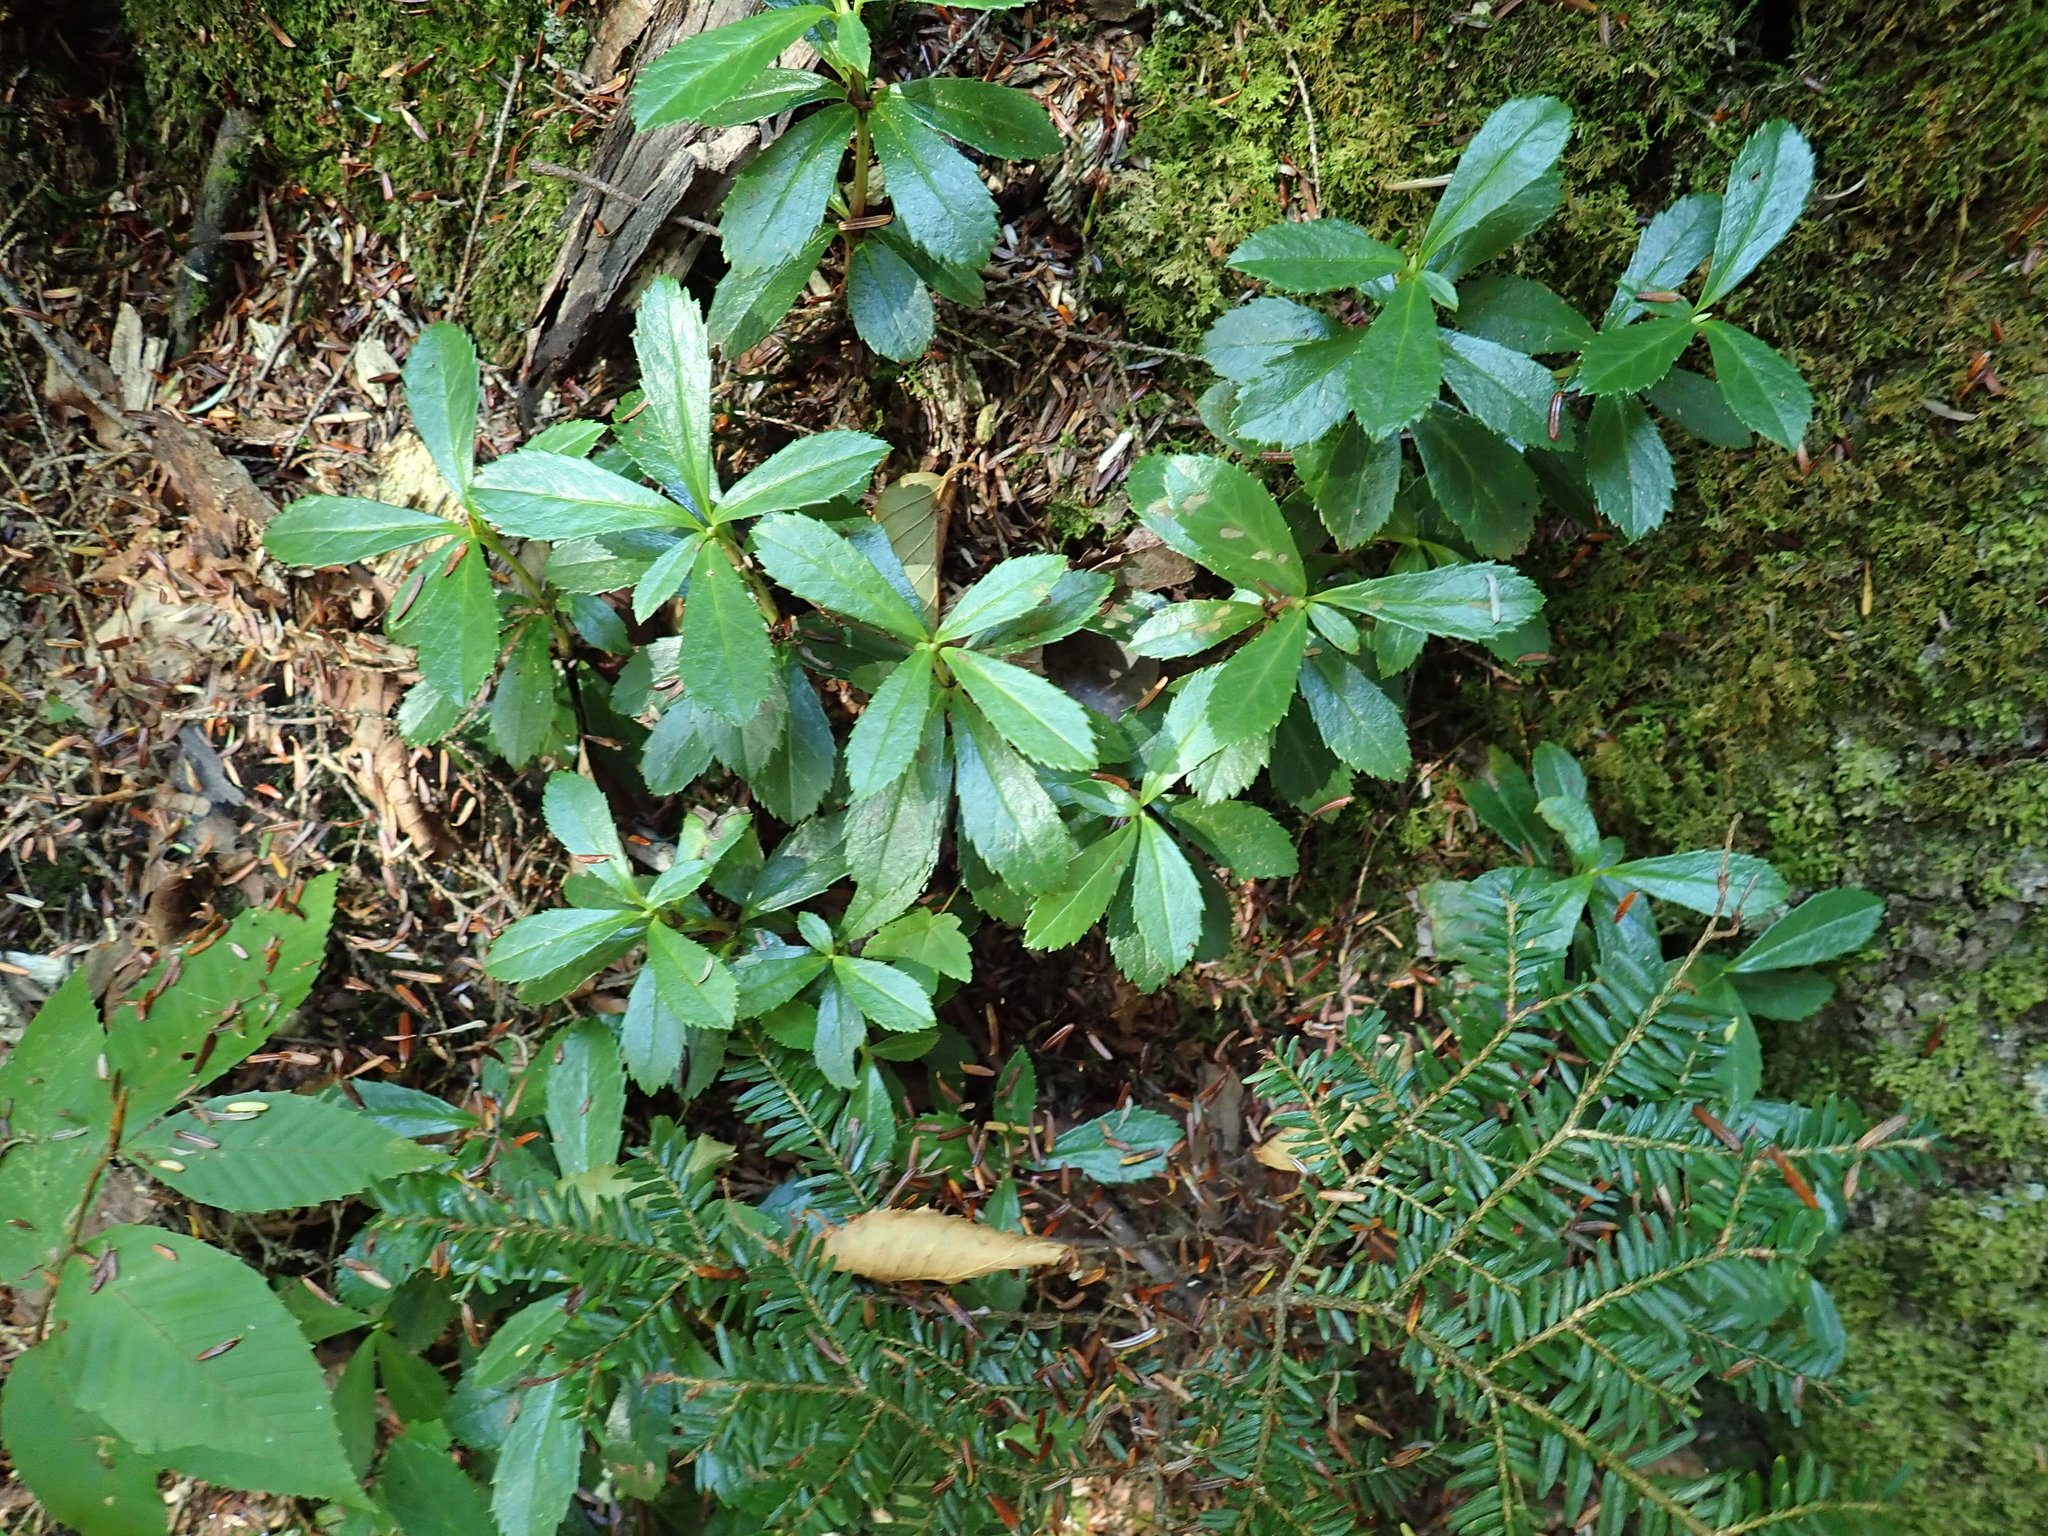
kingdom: Plantae
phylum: Tracheophyta
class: Magnoliopsida
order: Ericales
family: Ericaceae
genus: Chimaphila
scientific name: Chimaphila umbellata
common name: Pipsissewa
